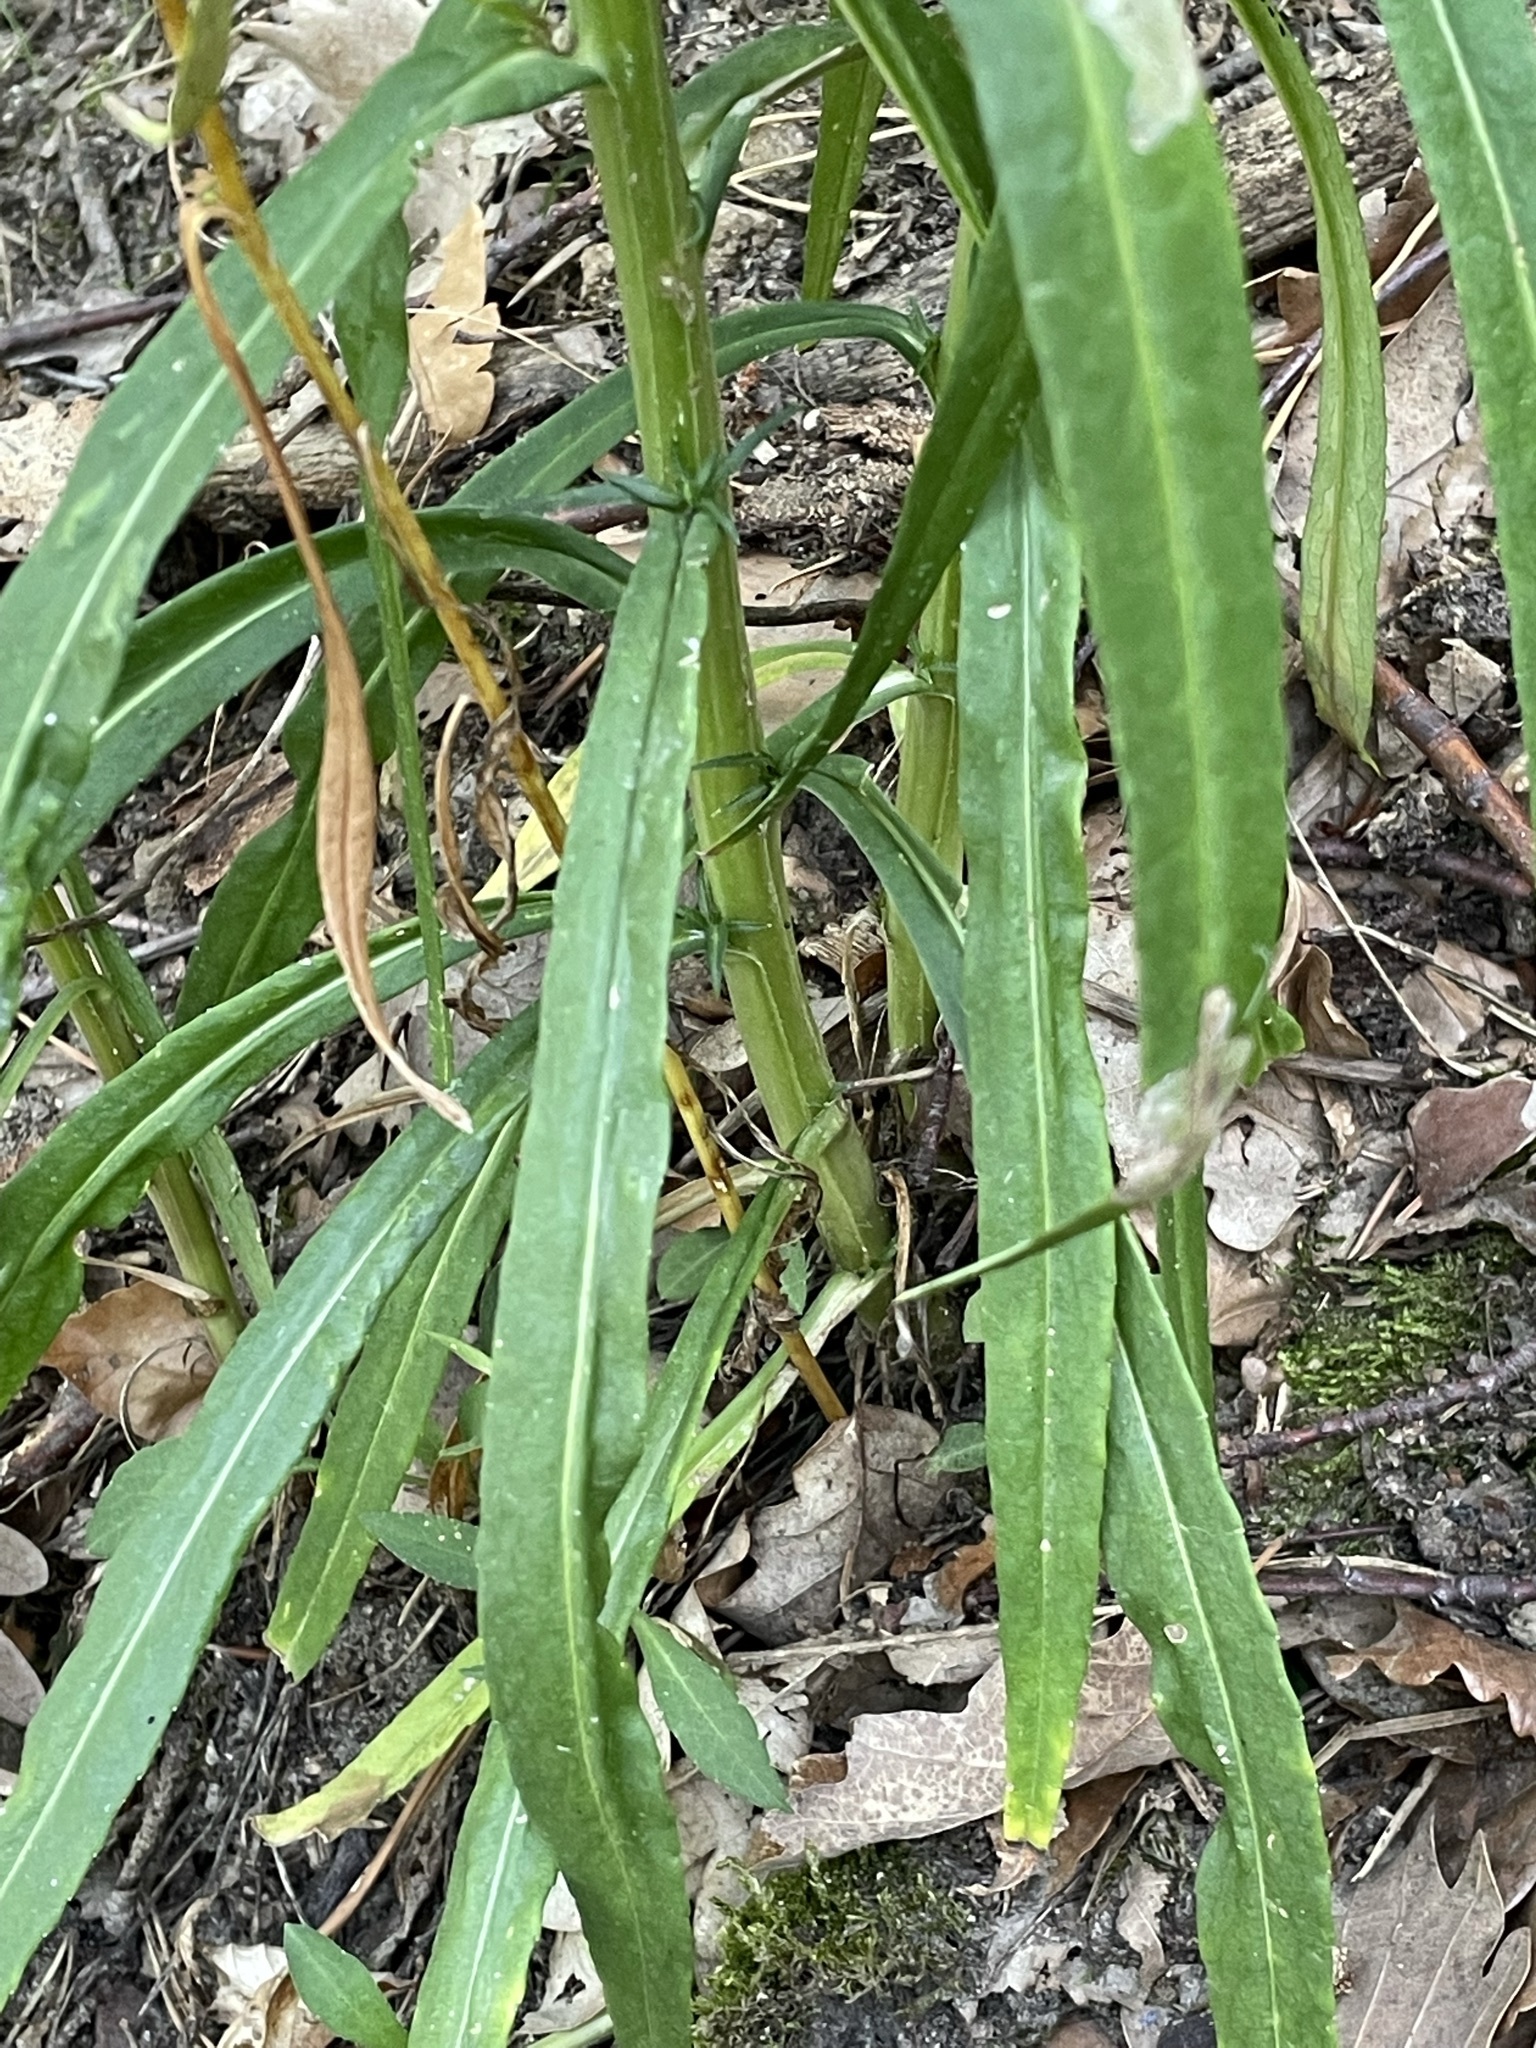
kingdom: Plantae
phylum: Tracheophyta
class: Magnoliopsida
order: Asterales
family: Campanulaceae
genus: Campanula
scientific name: Campanula persicifolia
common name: Peach-leaved bellflower
